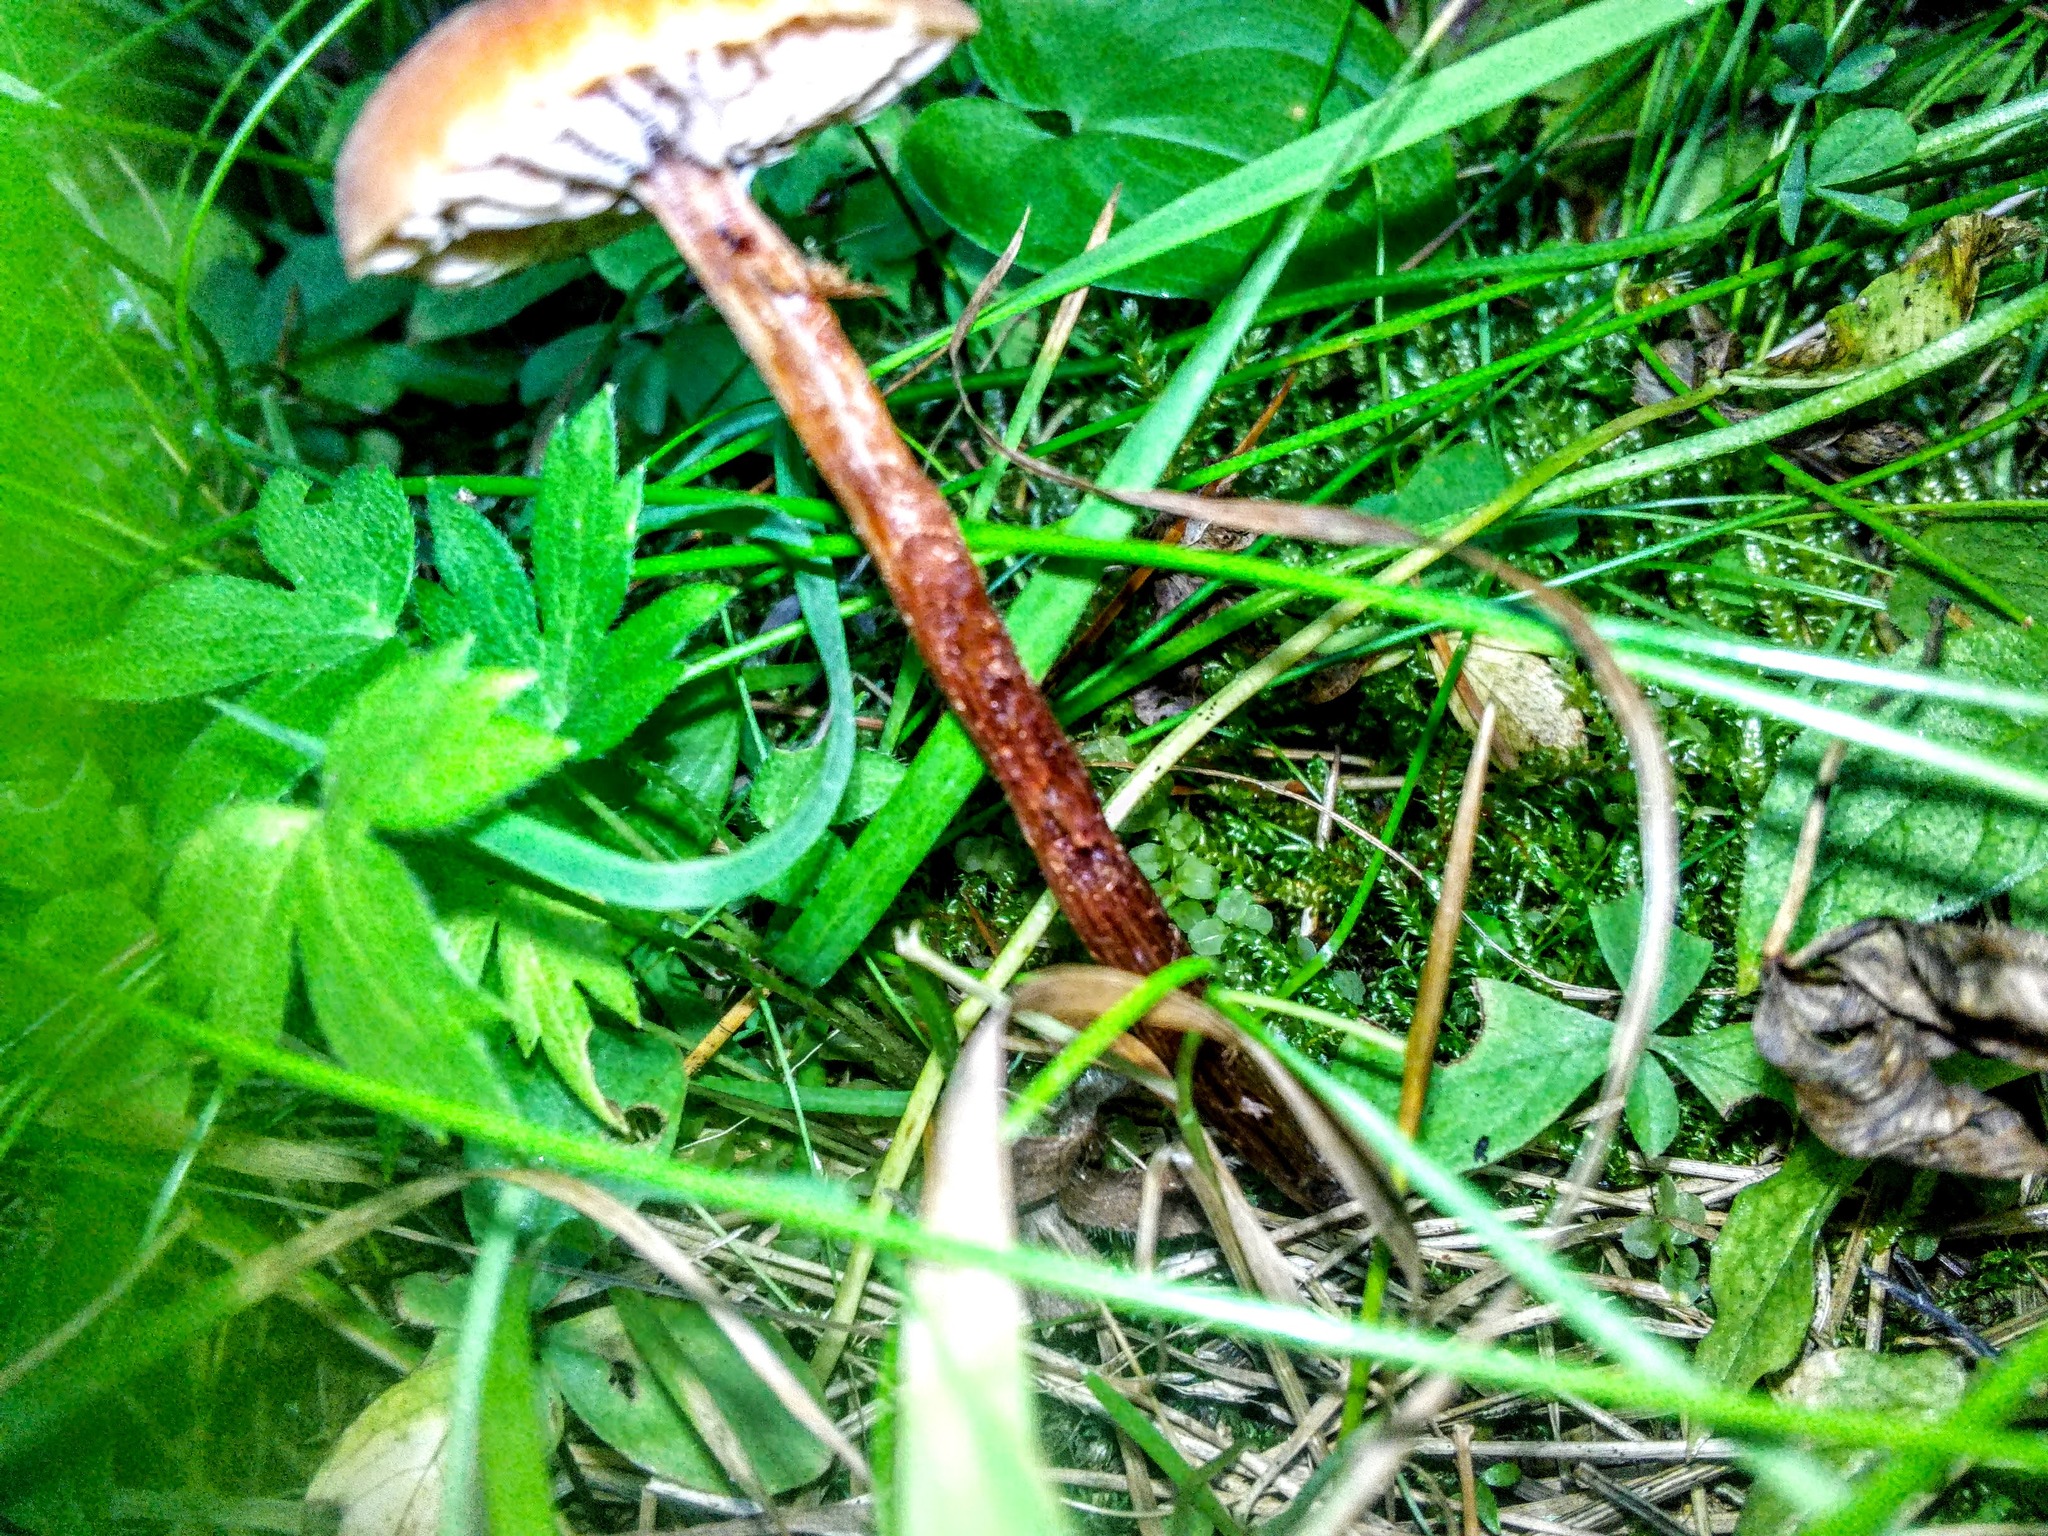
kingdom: Fungi
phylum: Basidiomycota
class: Agaricomycetes
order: Agaricales
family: Hydnangiaceae
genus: Laccaria
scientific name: Laccaria proxima
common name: Scurfy deceiver
